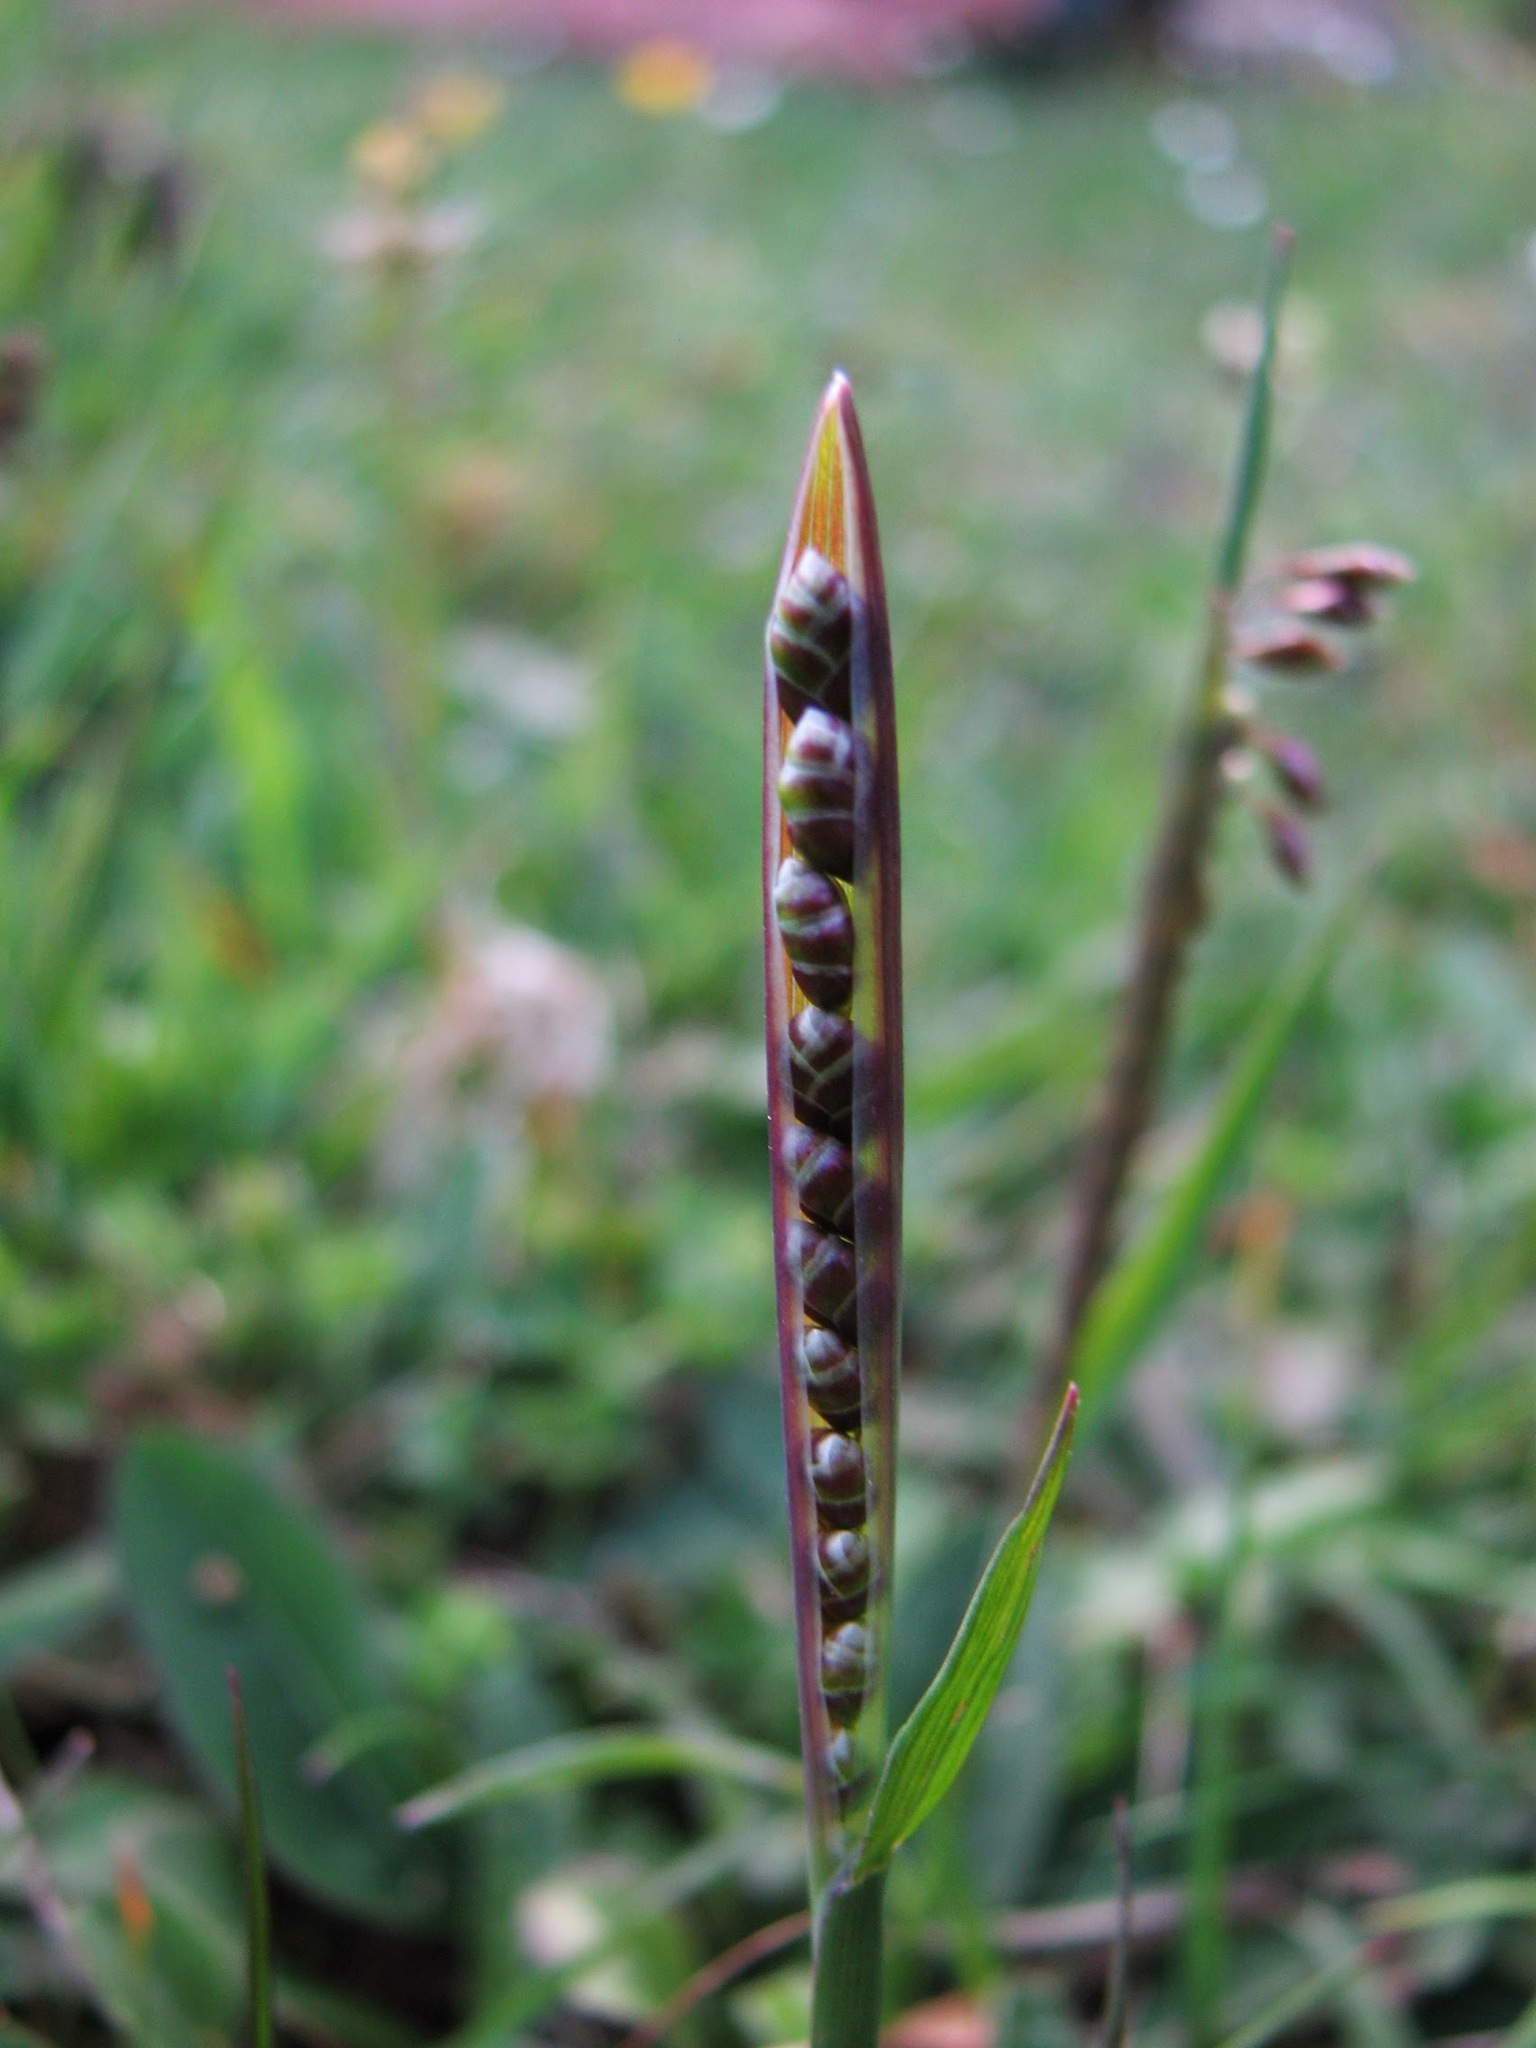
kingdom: Plantae
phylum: Tracheophyta
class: Liliopsida
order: Poales
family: Poaceae
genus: Briza
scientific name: Briza media
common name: Quaking grass
